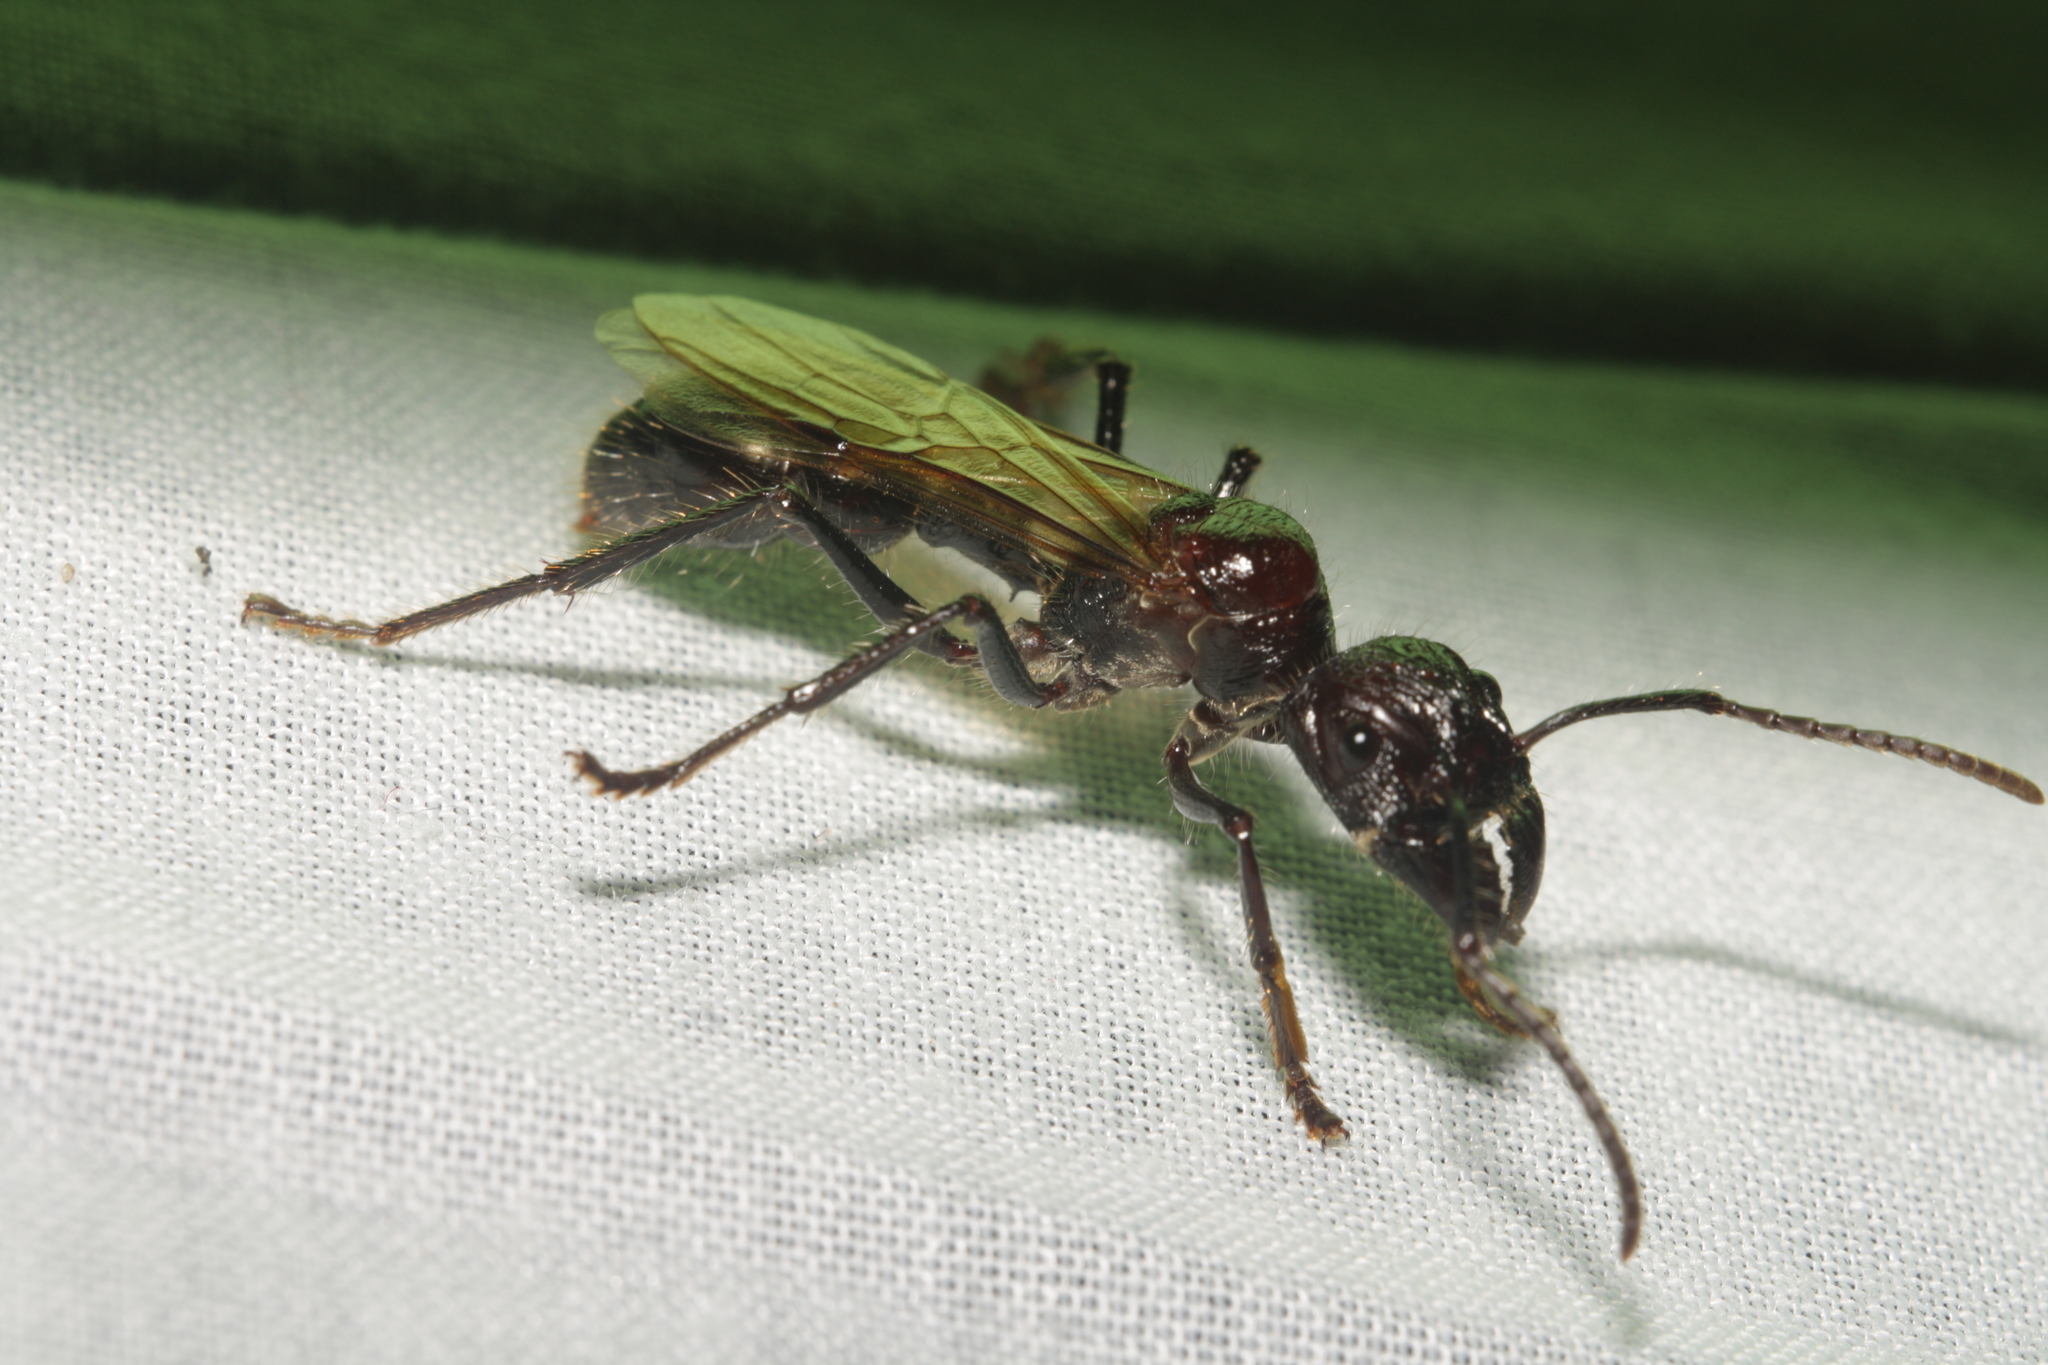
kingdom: Animalia
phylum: Arthropoda
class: Insecta
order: Hymenoptera
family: Formicidae
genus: Paraponera
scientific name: Paraponera clavata
